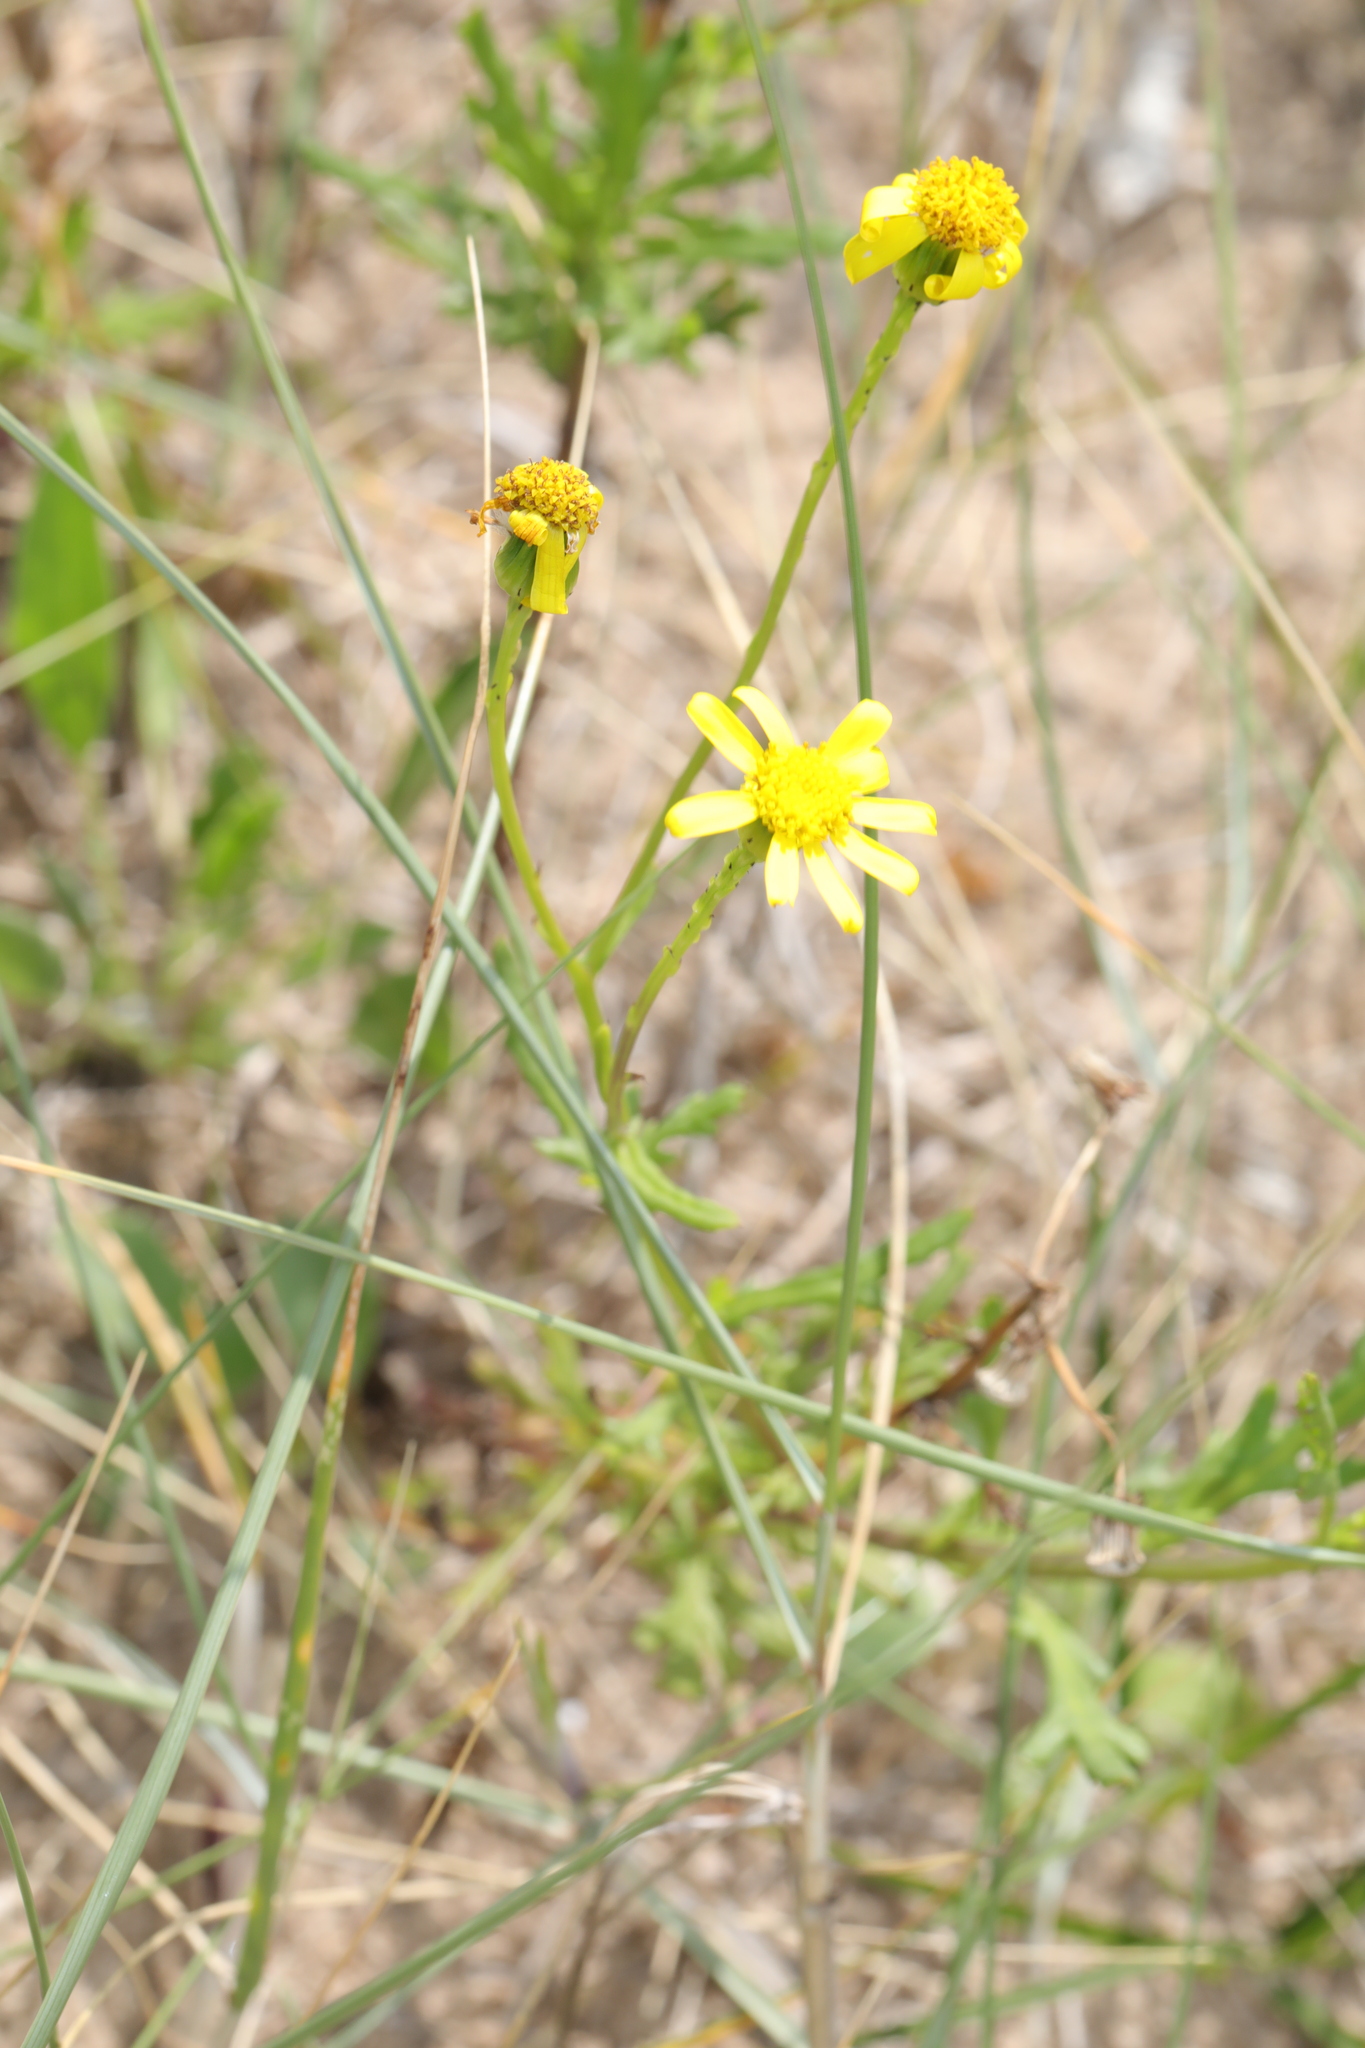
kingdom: Plantae
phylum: Tracheophyta
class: Magnoliopsida
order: Asterales
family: Asteraceae
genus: Senecio
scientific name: Senecio squalidus
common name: Oxford ragwort
